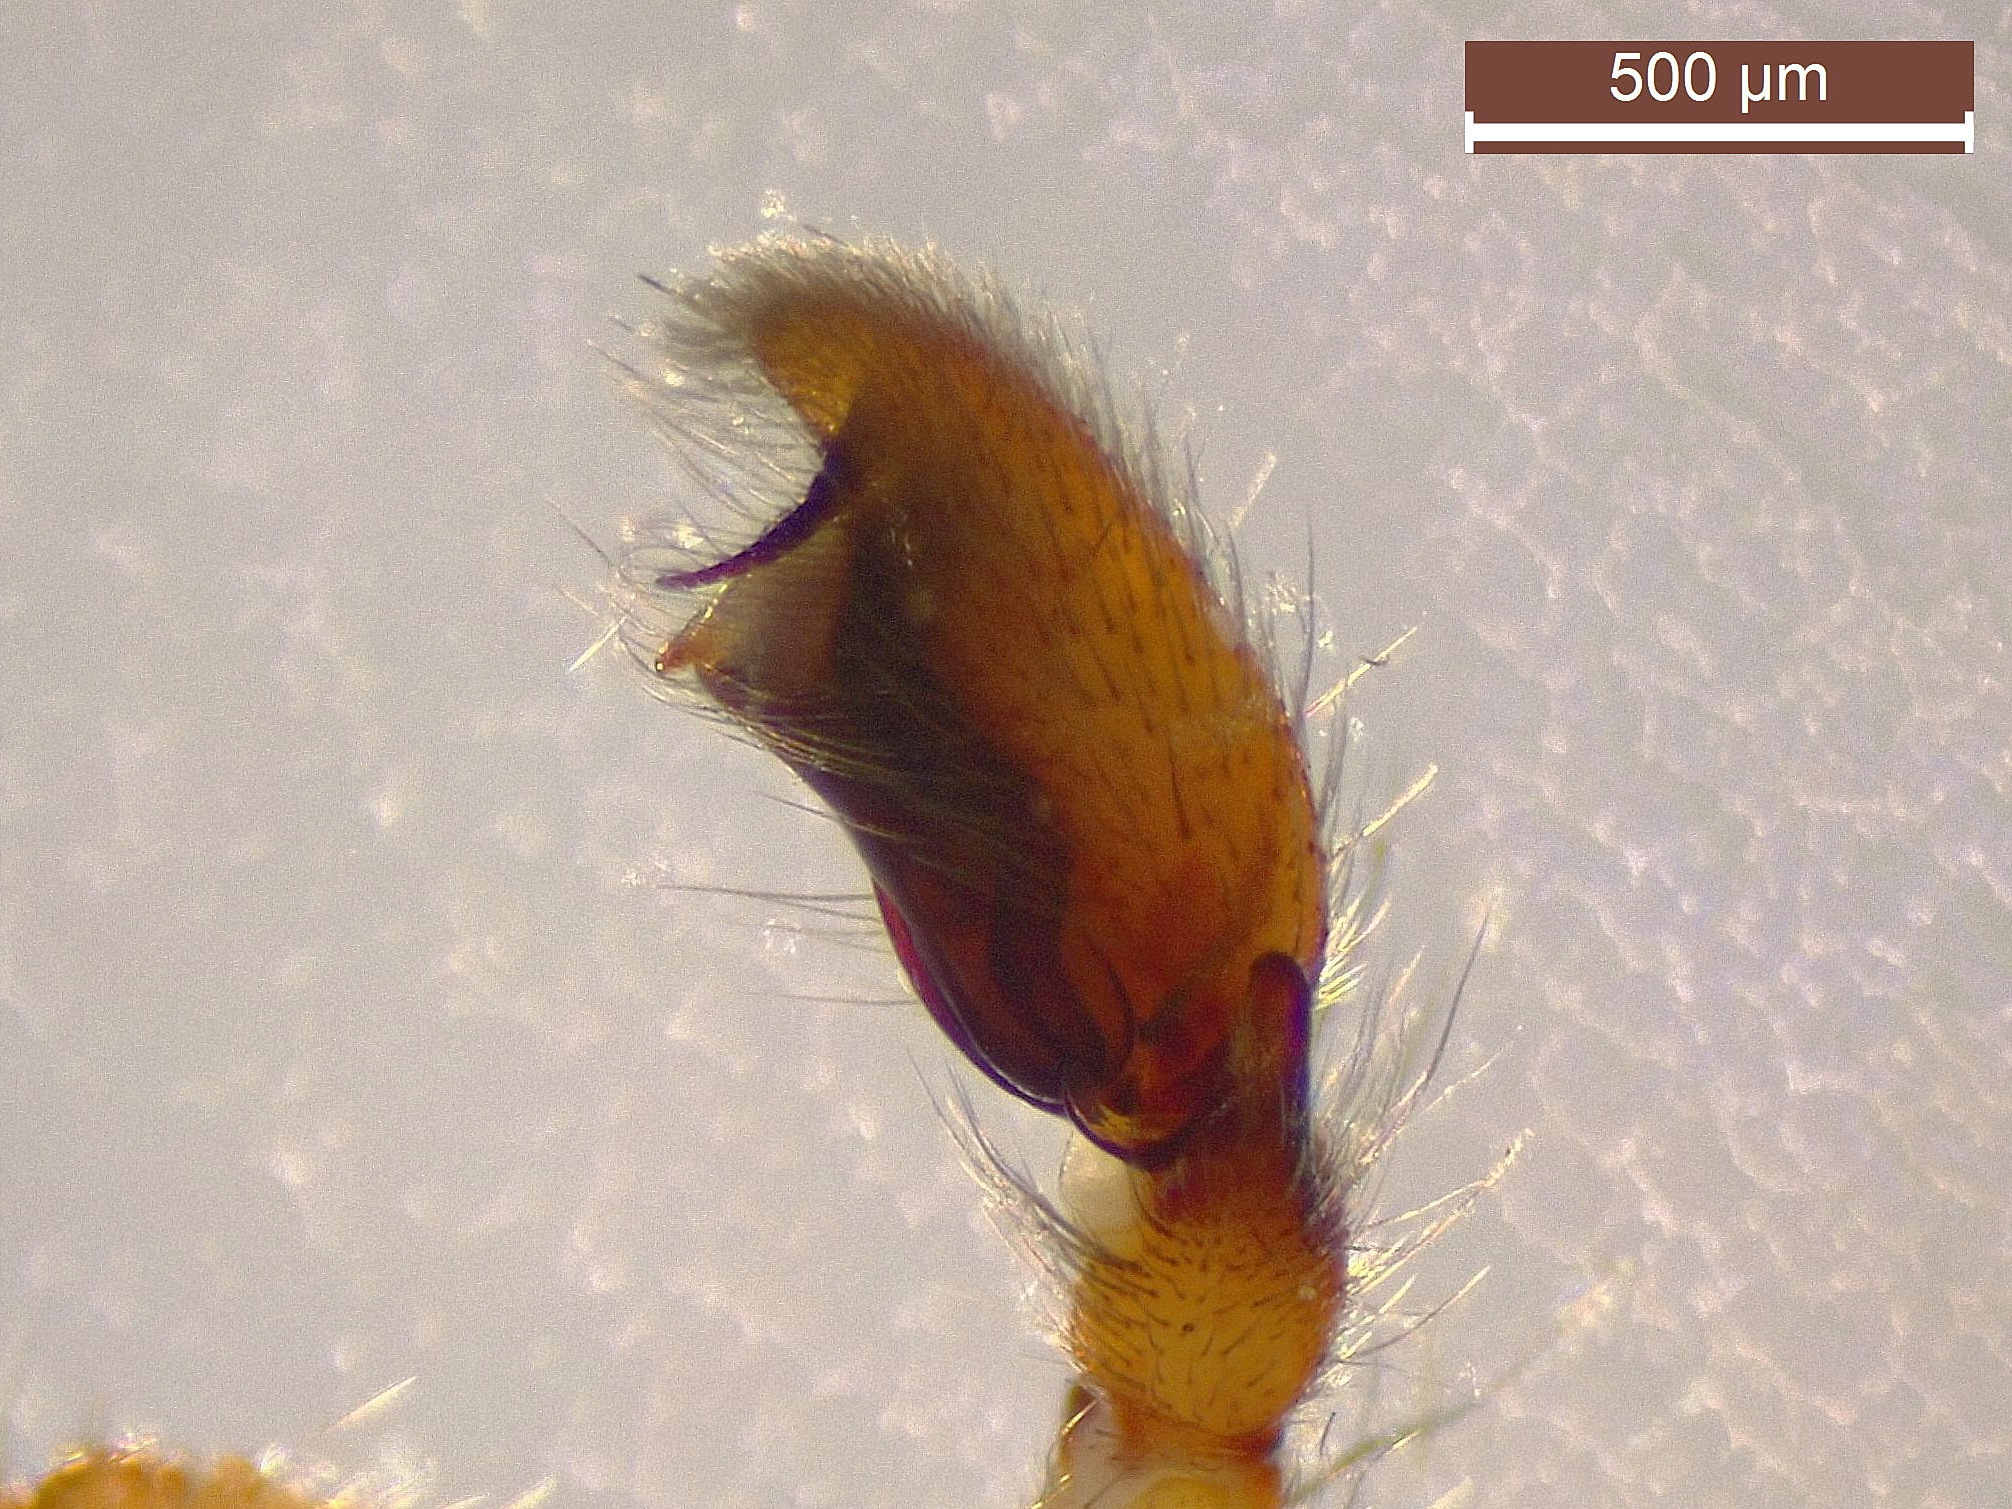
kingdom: Animalia
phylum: Arthropoda
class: Arachnida
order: Araneae
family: Clubionidae
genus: Clubiona
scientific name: Clubiona terrestris
